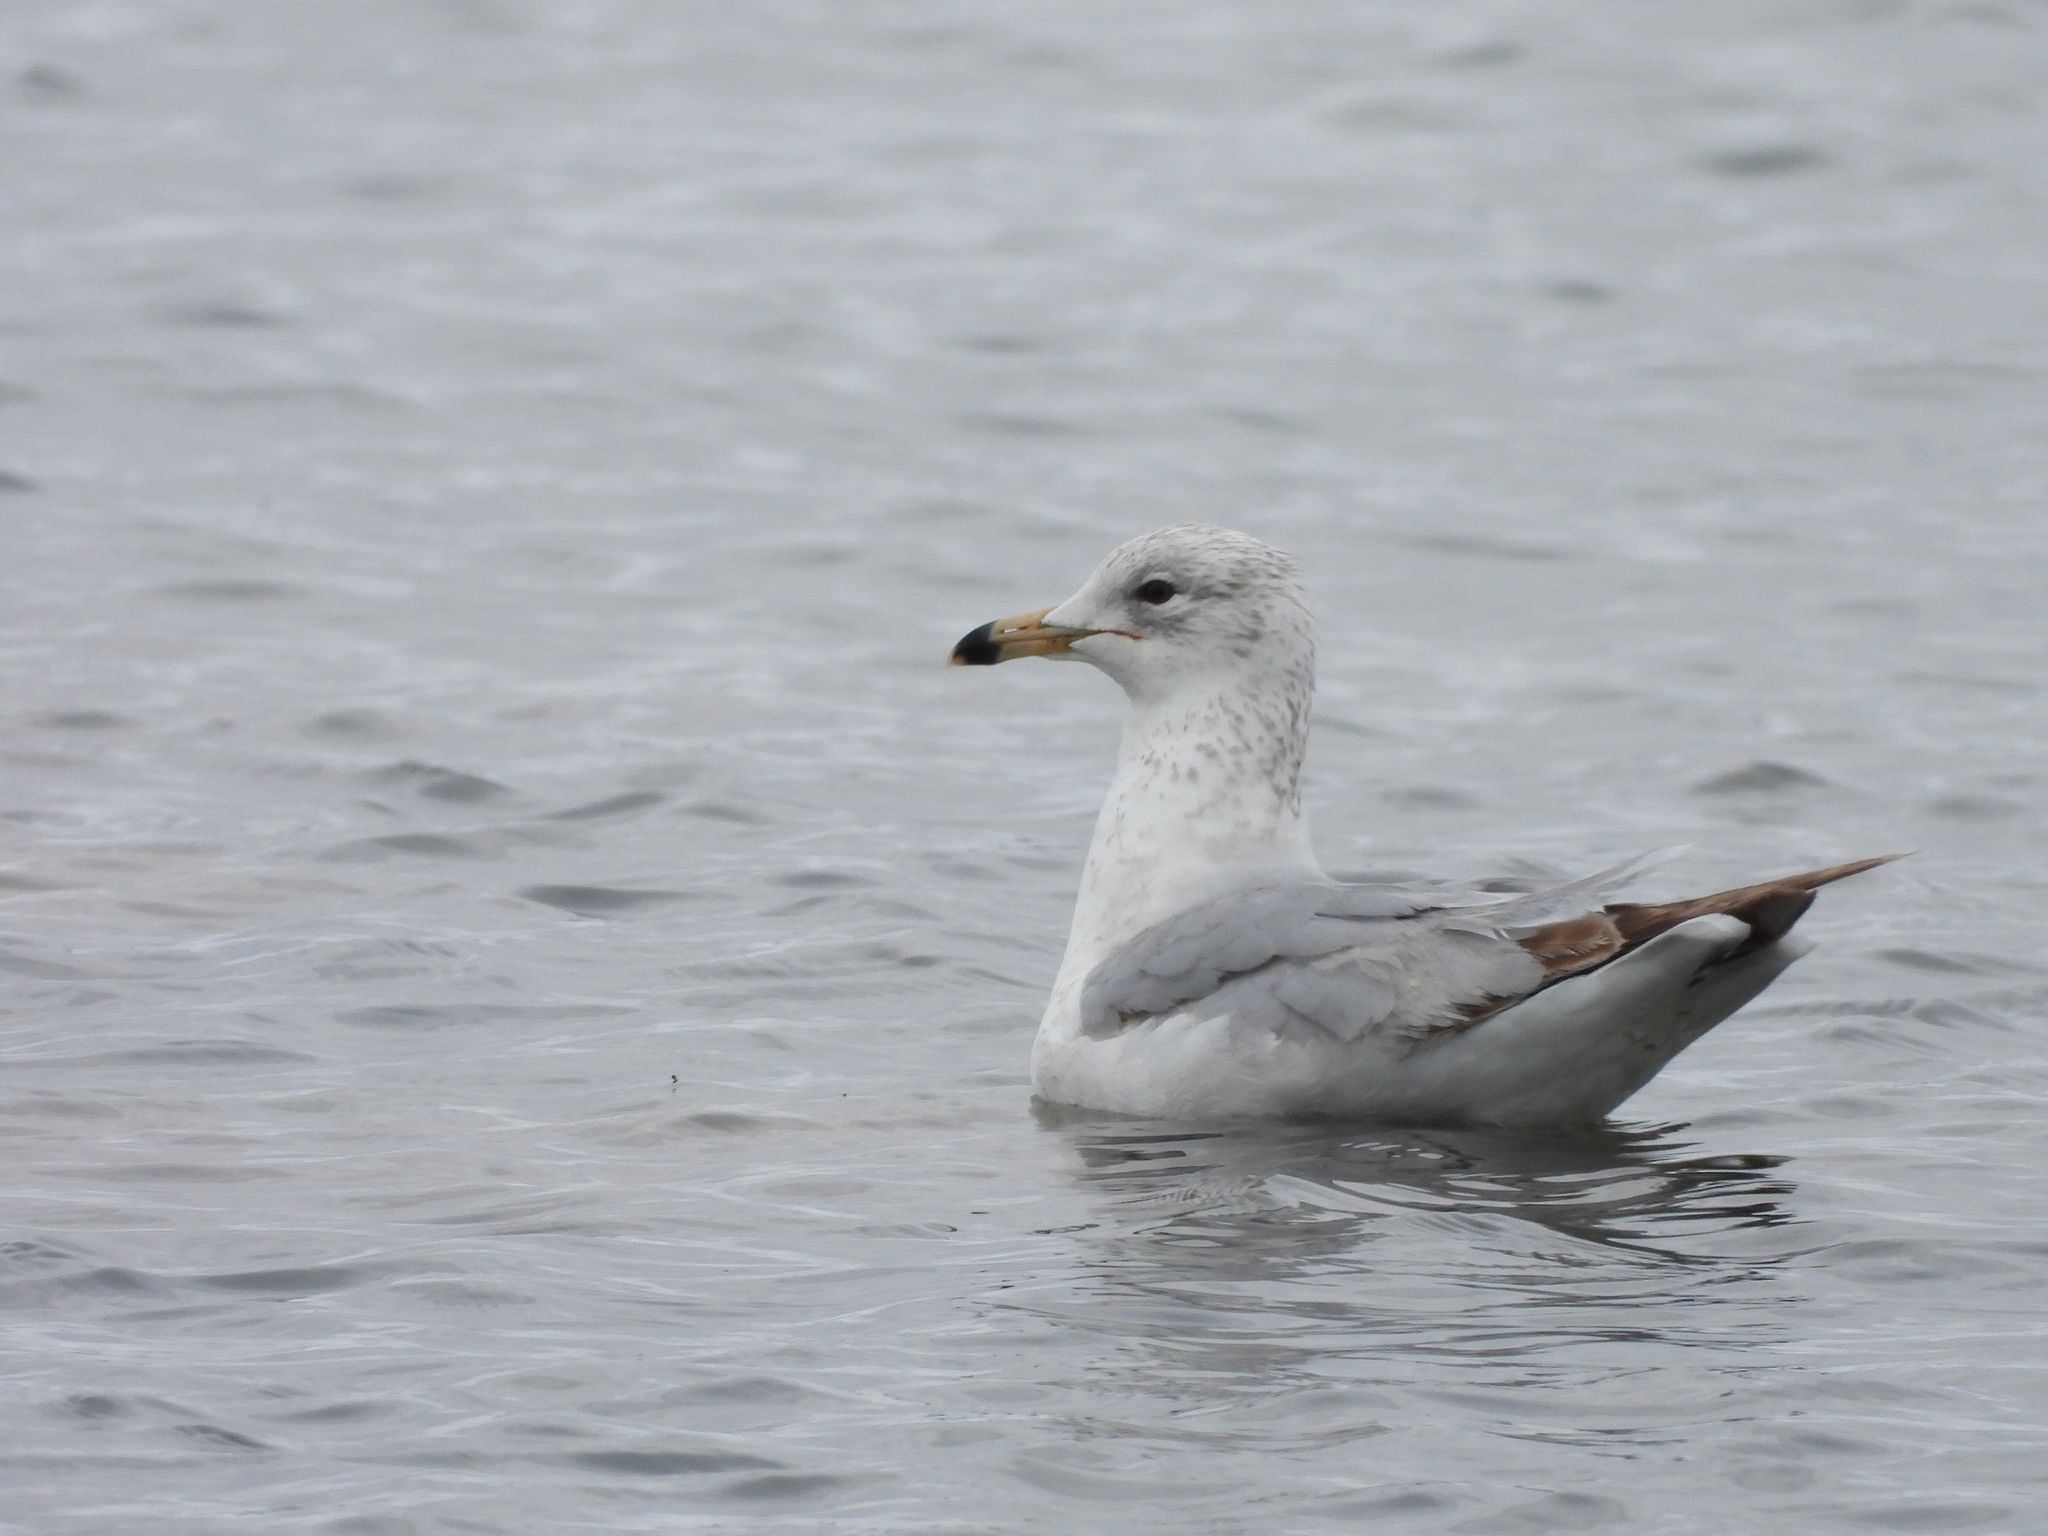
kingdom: Animalia
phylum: Chordata
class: Aves
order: Charadriiformes
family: Laridae
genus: Larus
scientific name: Larus delawarensis
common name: Ring-billed gull
